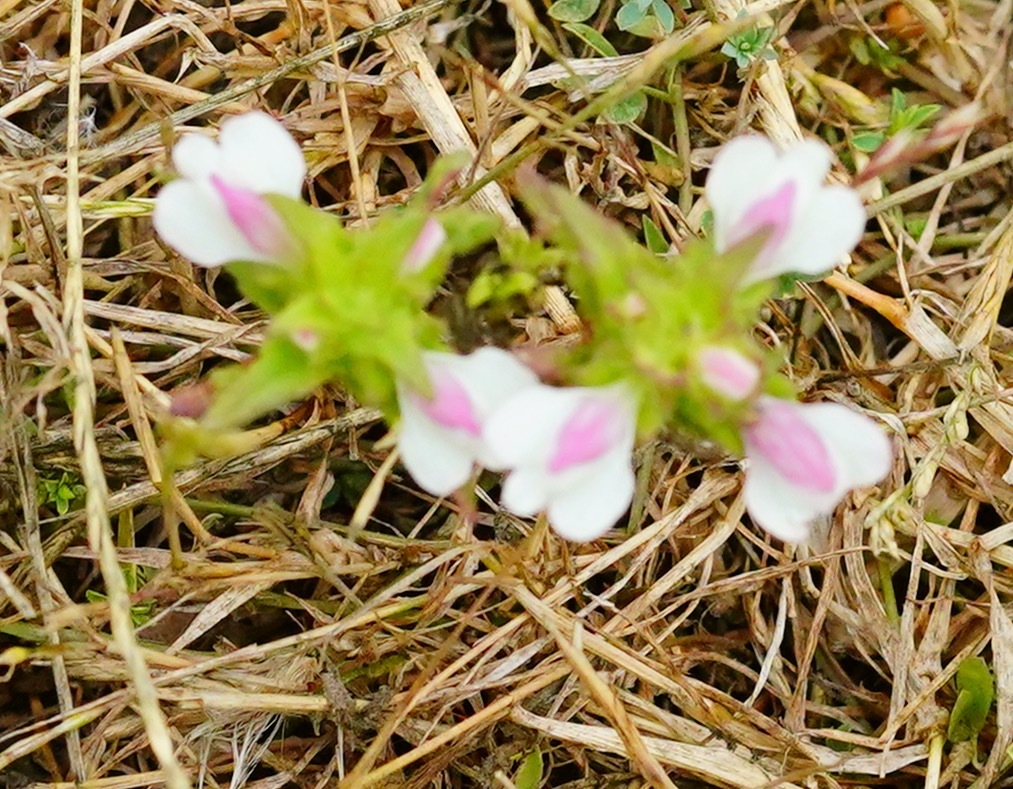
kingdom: Plantae
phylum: Tracheophyta
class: Magnoliopsida
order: Lamiales
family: Orobanchaceae
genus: Bellardia
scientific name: Bellardia trixago
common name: Mediterranean lineseed
